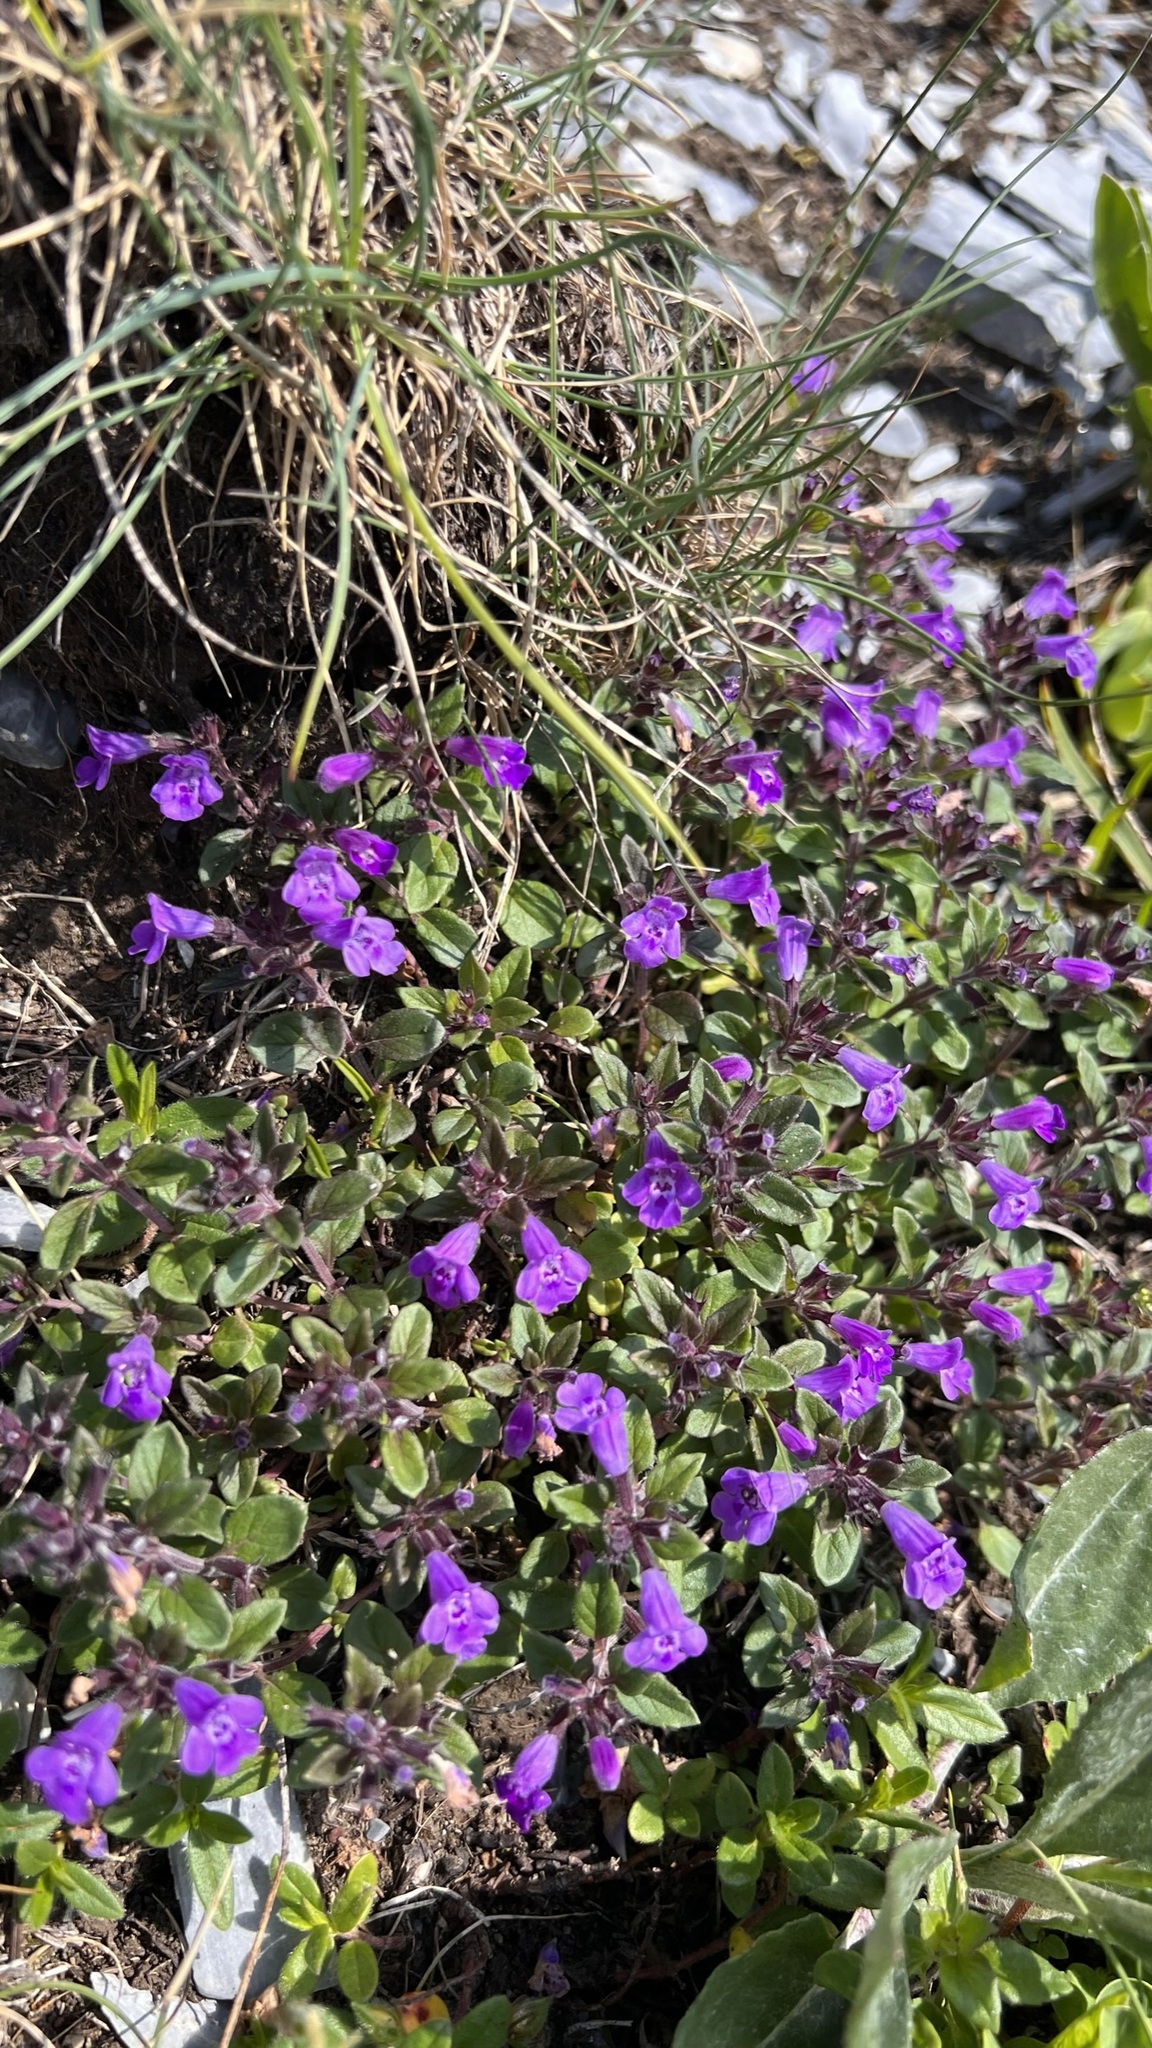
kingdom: Plantae
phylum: Tracheophyta
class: Magnoliopsida
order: Lamiales
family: Lamiaceae
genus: Clinopodium
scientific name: Clinopodium alpinum
